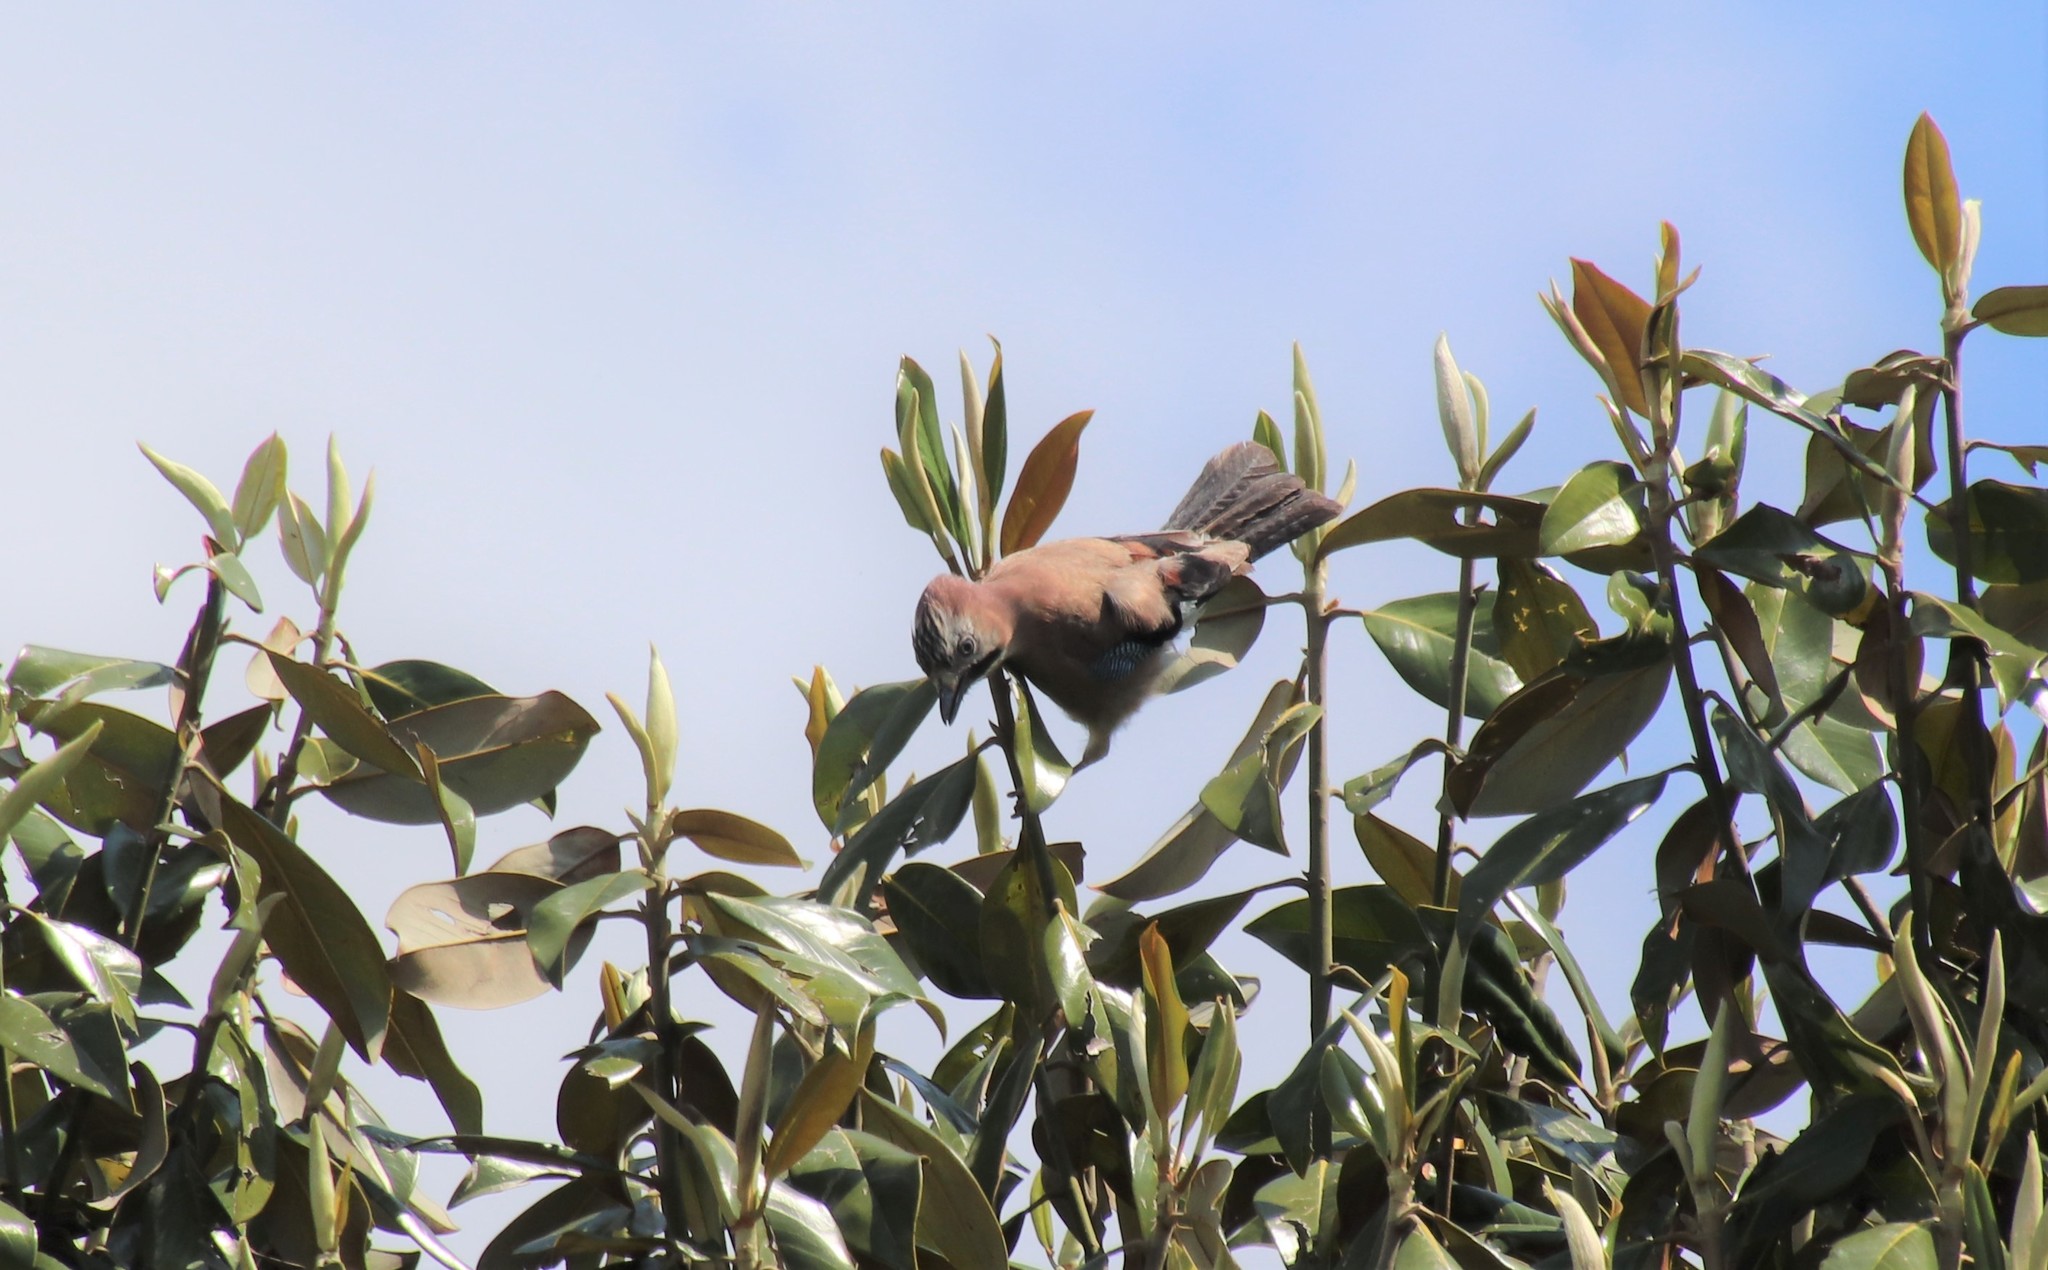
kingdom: Animalia
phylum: Chordata
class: Aves
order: Passeriformes
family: Corvidae
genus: Garrulus
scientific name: Garrulus glandarius
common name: Eurasian jay
